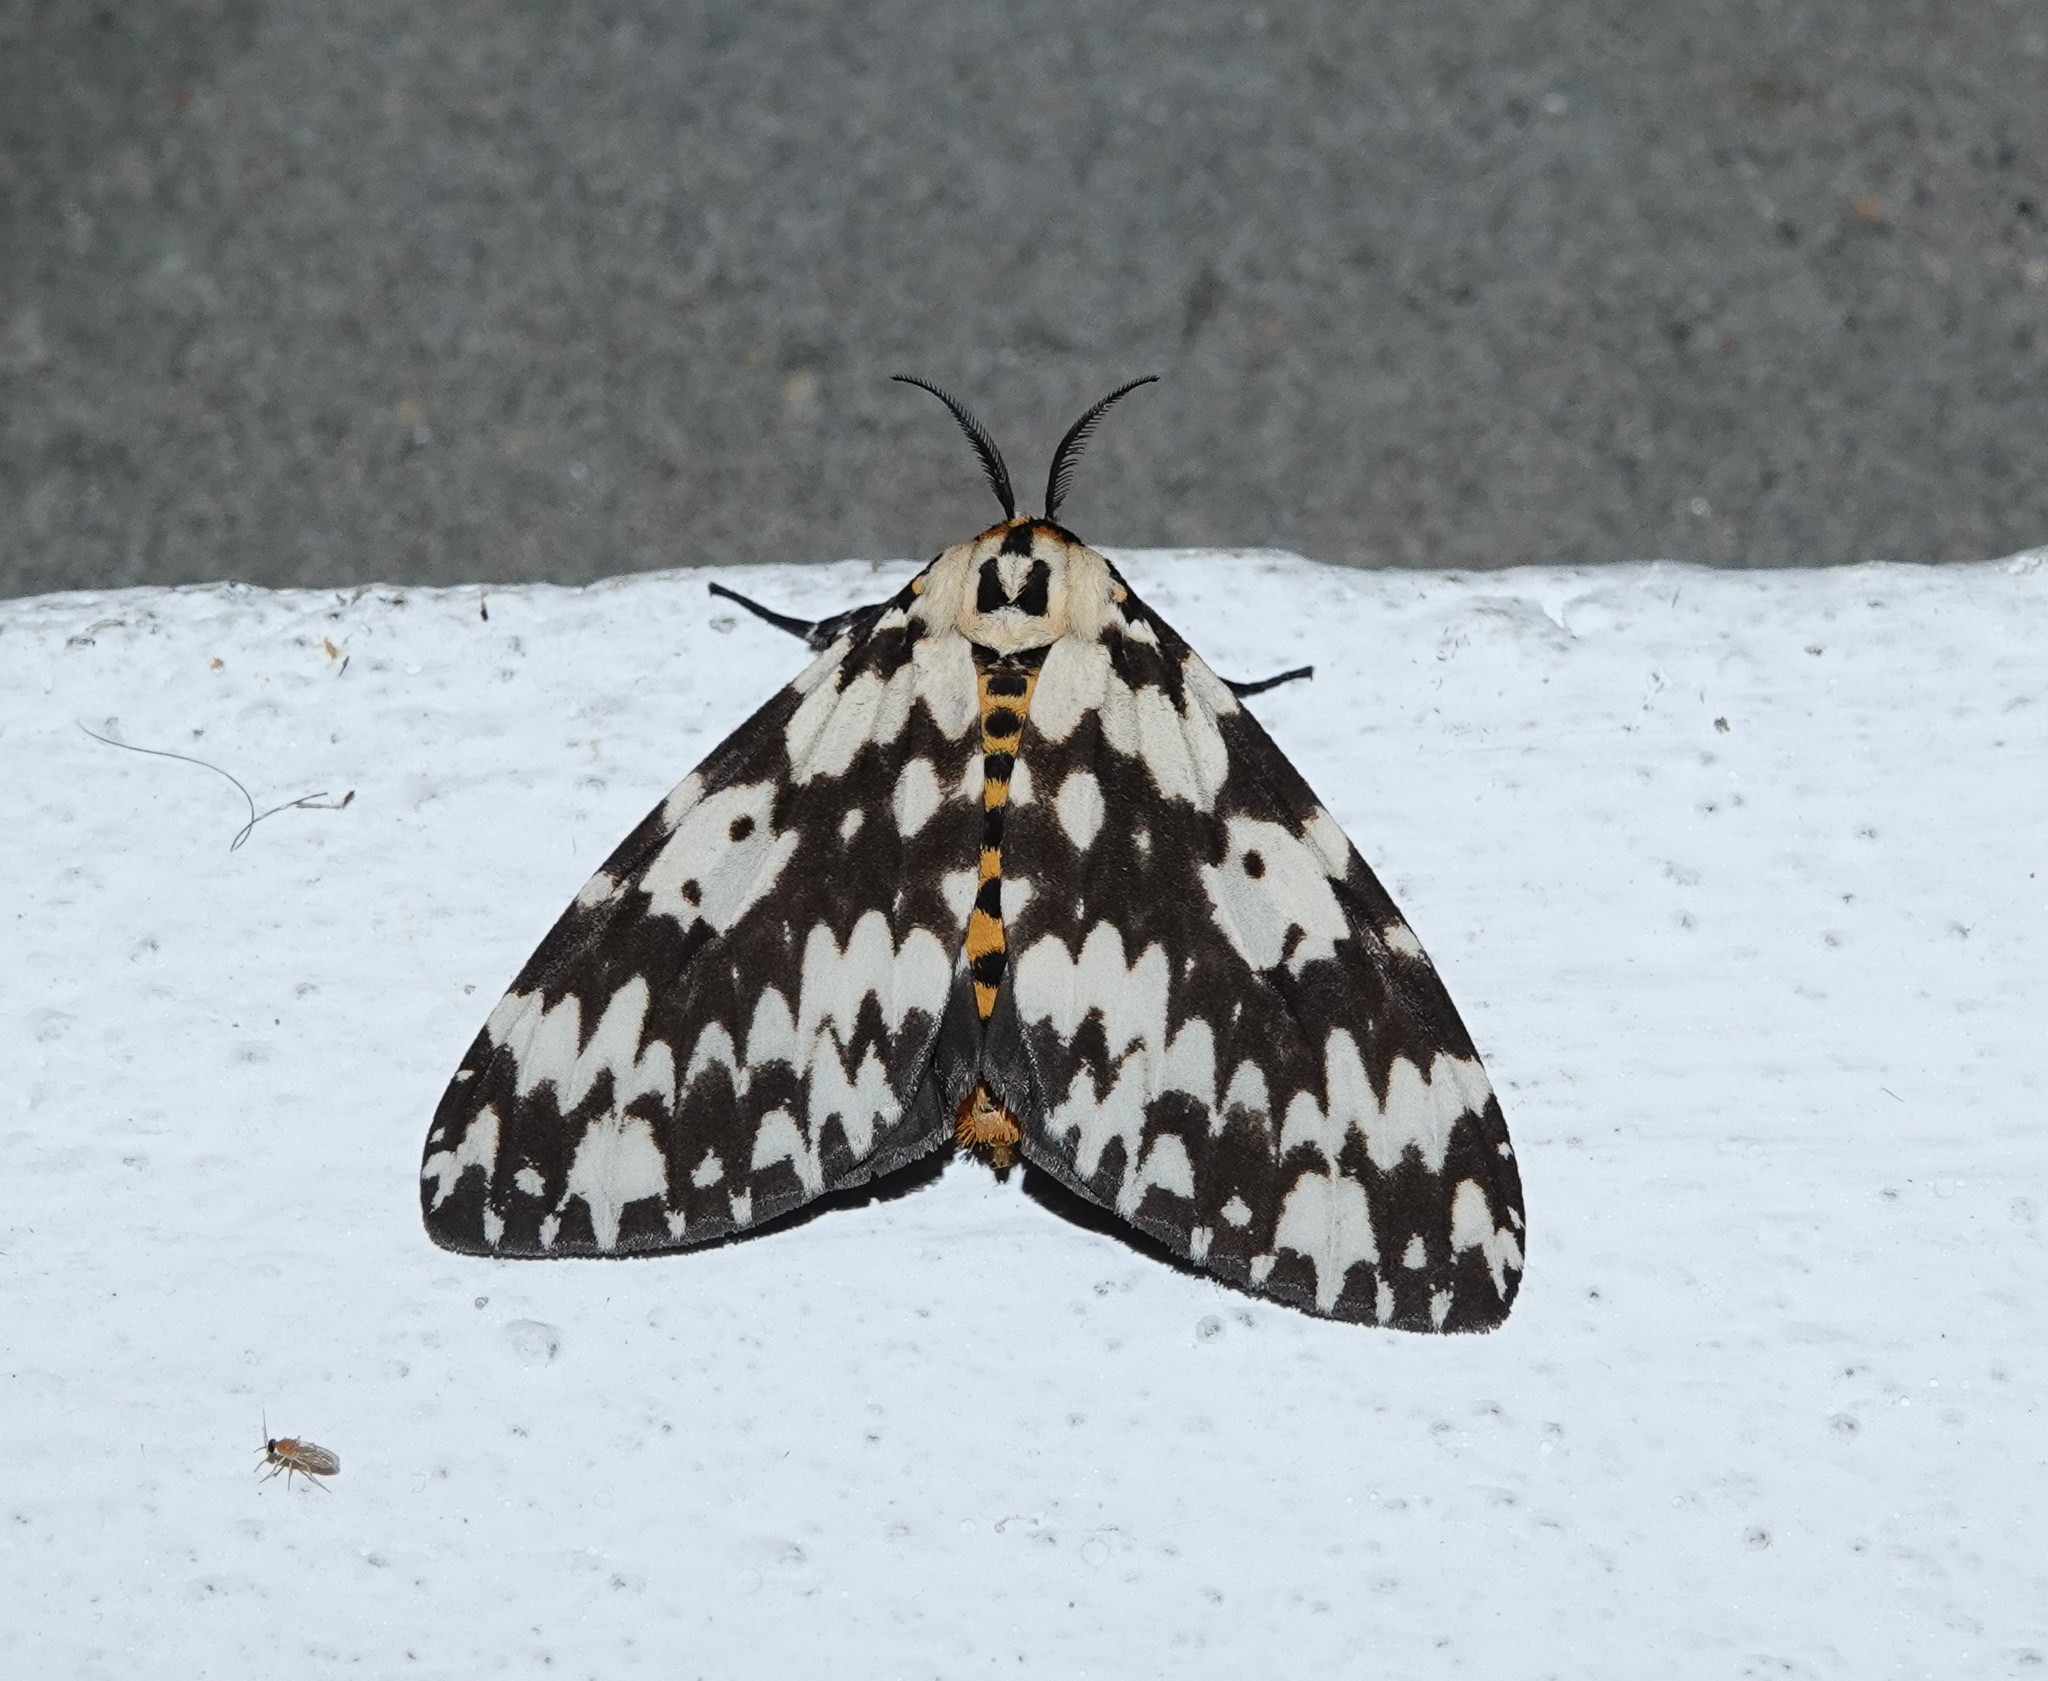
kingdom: Animalia
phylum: Arthropoda
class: Insecta
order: Lepidoptera
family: Erebidae
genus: Lymantria
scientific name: Lymantria marginata
